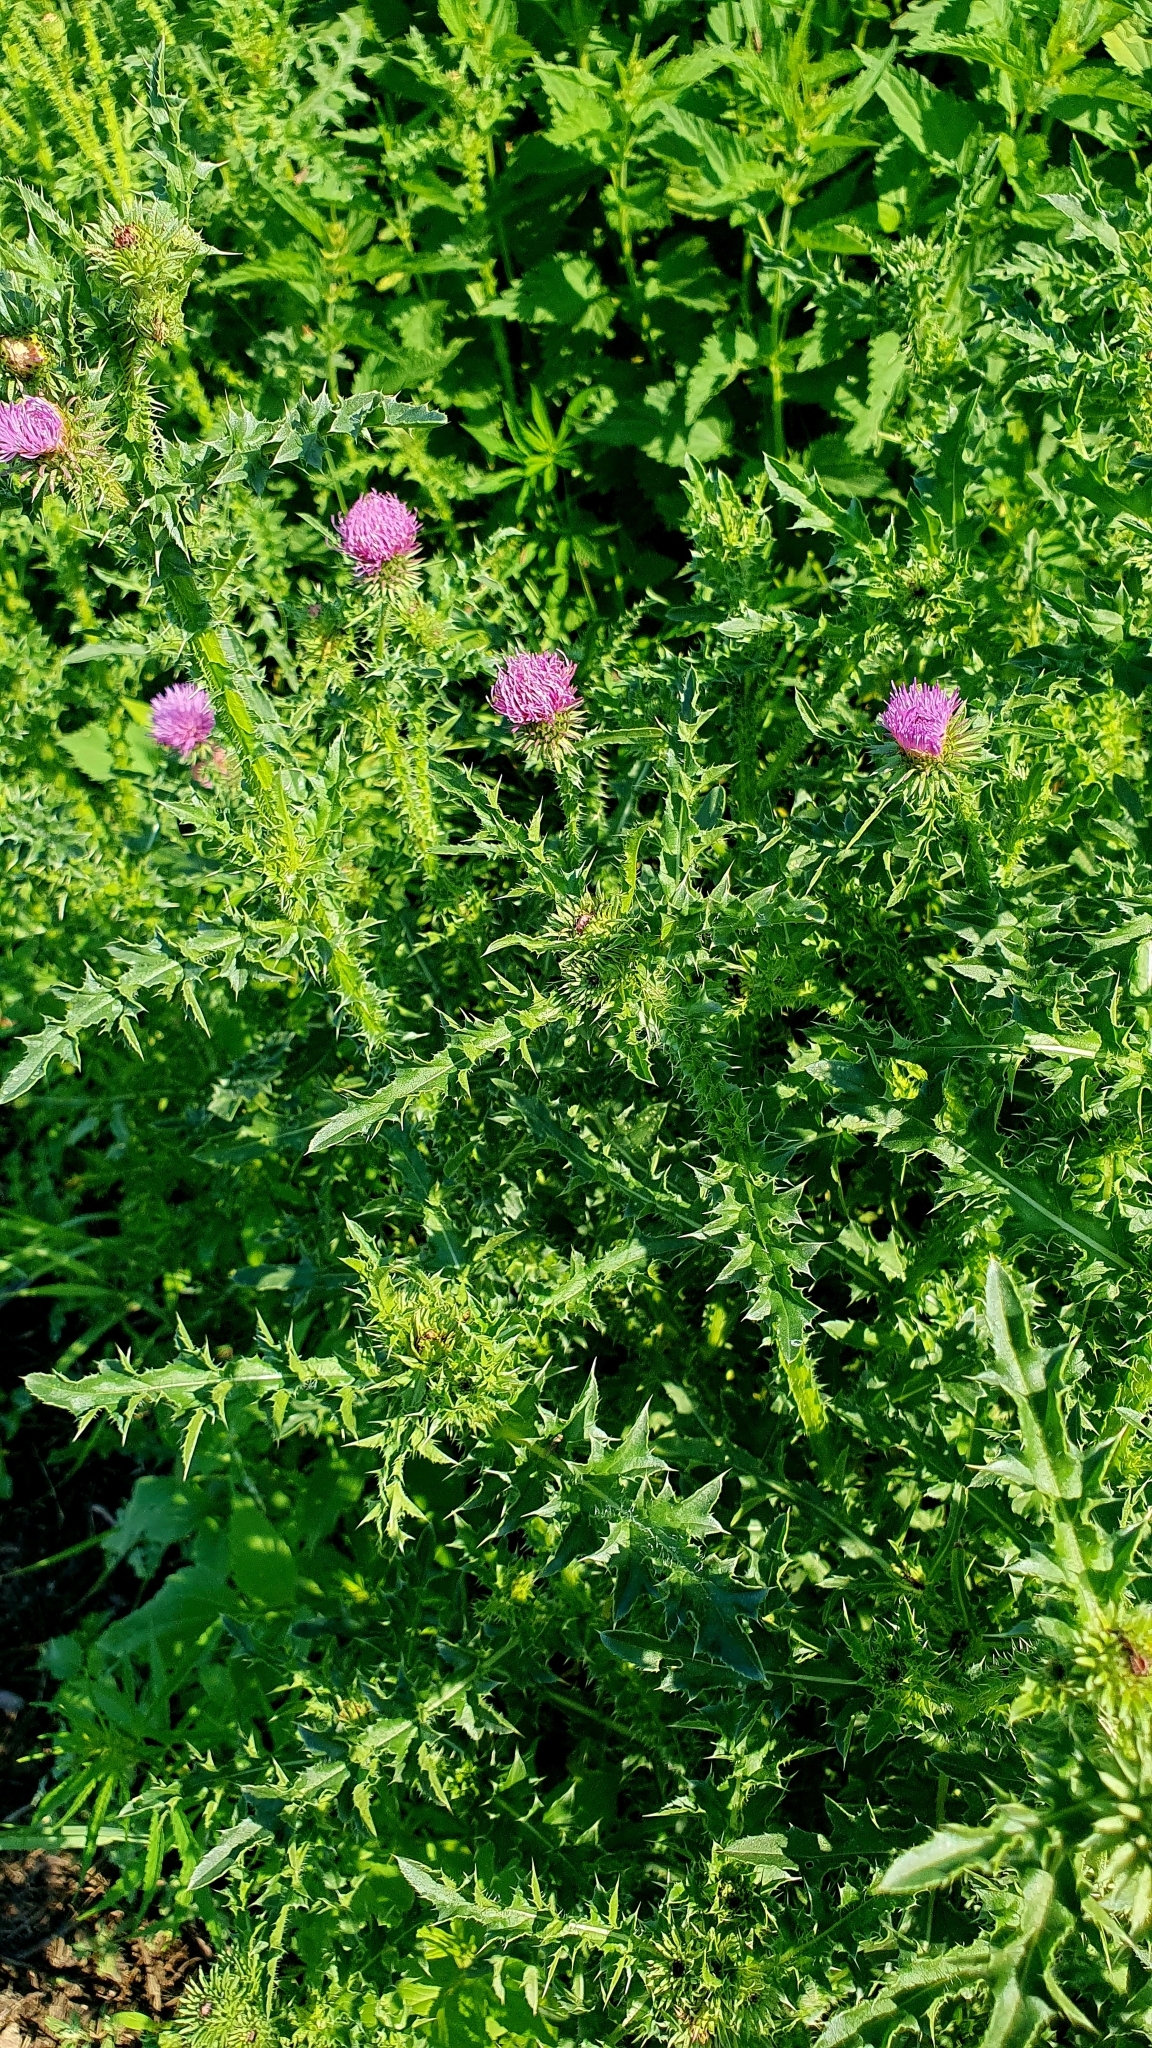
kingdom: Plantae
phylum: Tracheophyta
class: Magnoliopsida
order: Asterales
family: Asteraceae
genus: Carduus
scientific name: Carduus acanthoides
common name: Plumeless thistle
